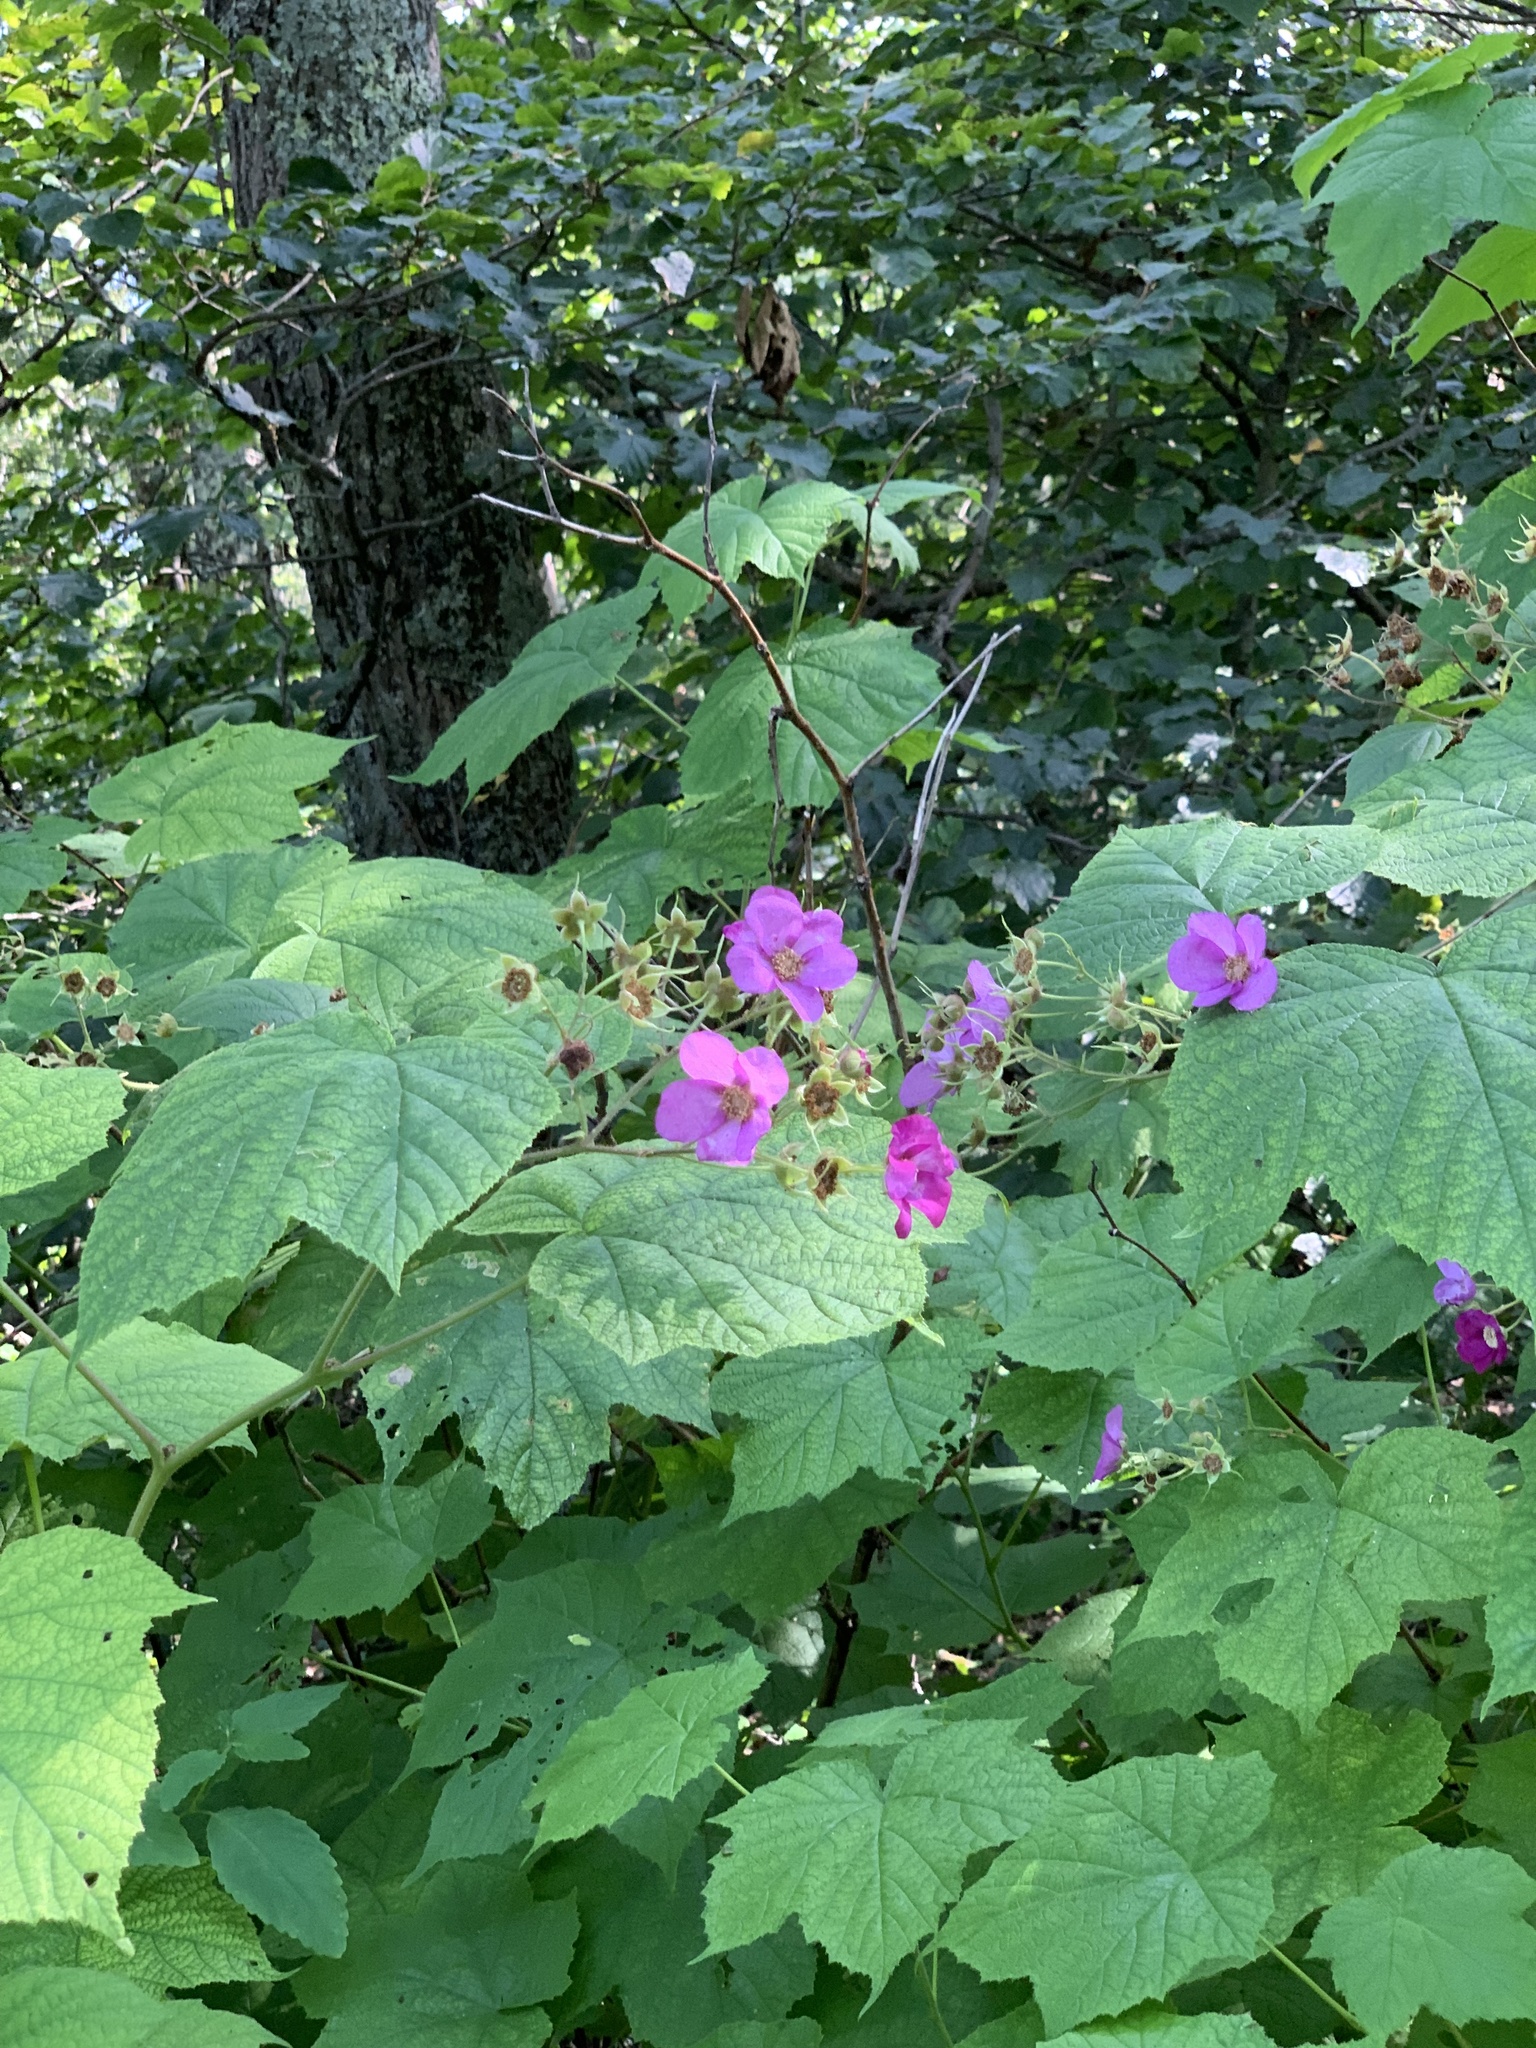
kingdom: Plantae
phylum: Tracheophyta
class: Magnoliopsida
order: Rosales
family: Rosaceae
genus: Rubus
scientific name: Rubus odoratus
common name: Purple-flowered raspberry
